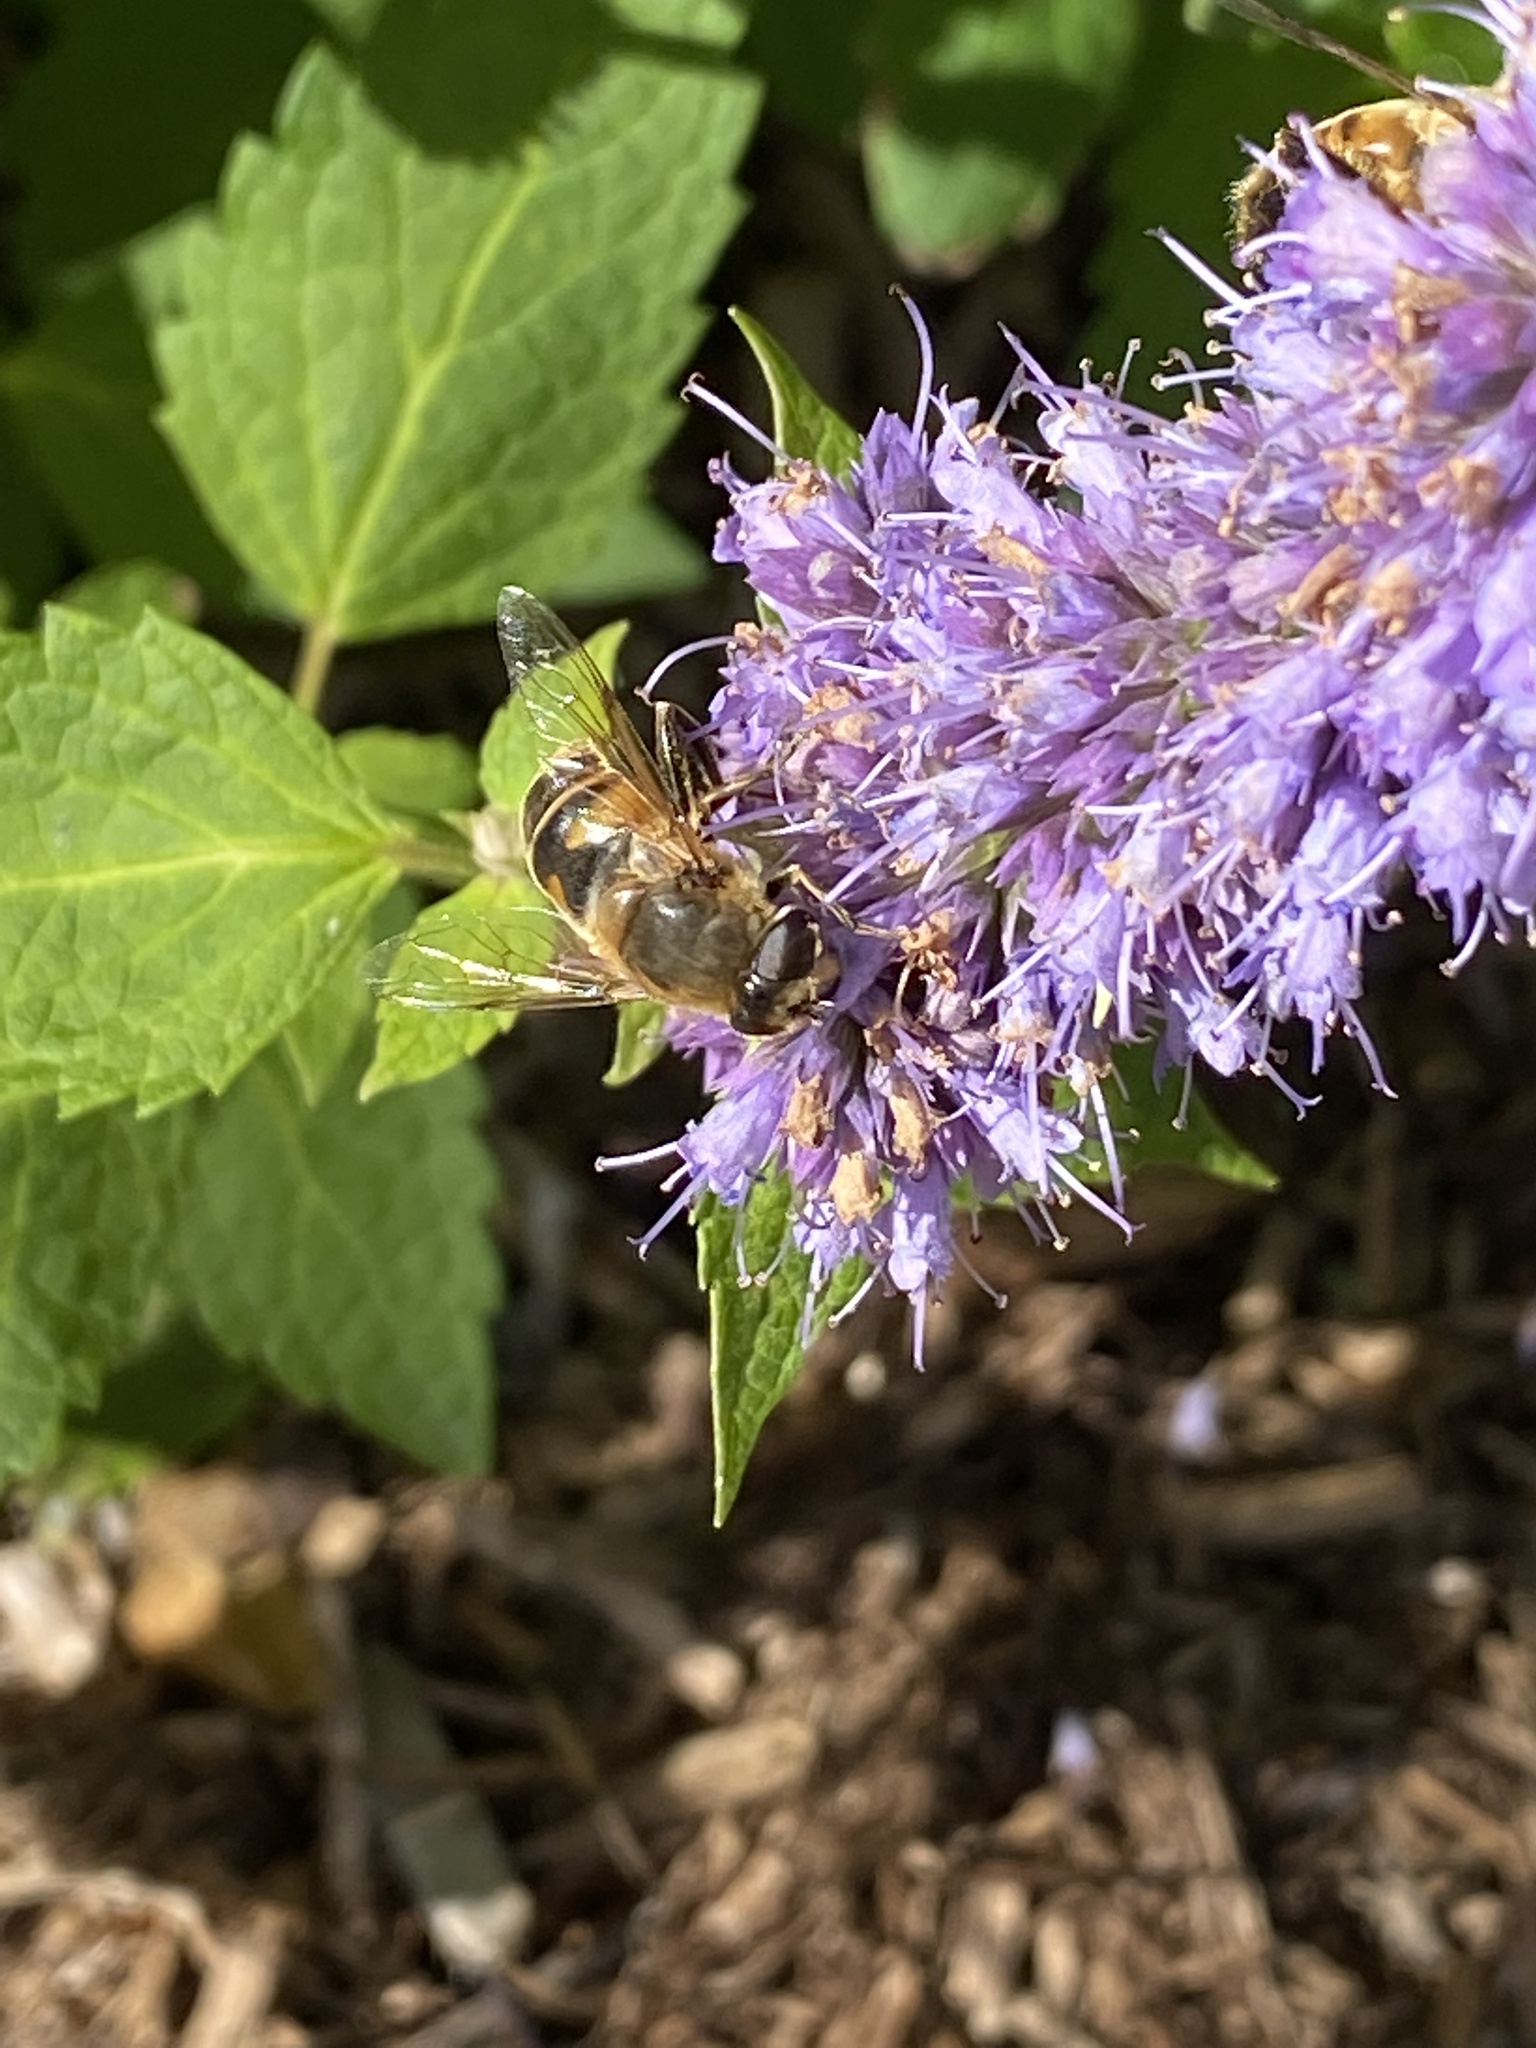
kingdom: Animalia
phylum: Arthropoda
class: Insecta
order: Diptera
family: Syrphidae
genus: Eristalis
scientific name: Eristalis tenax
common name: Drone fly
